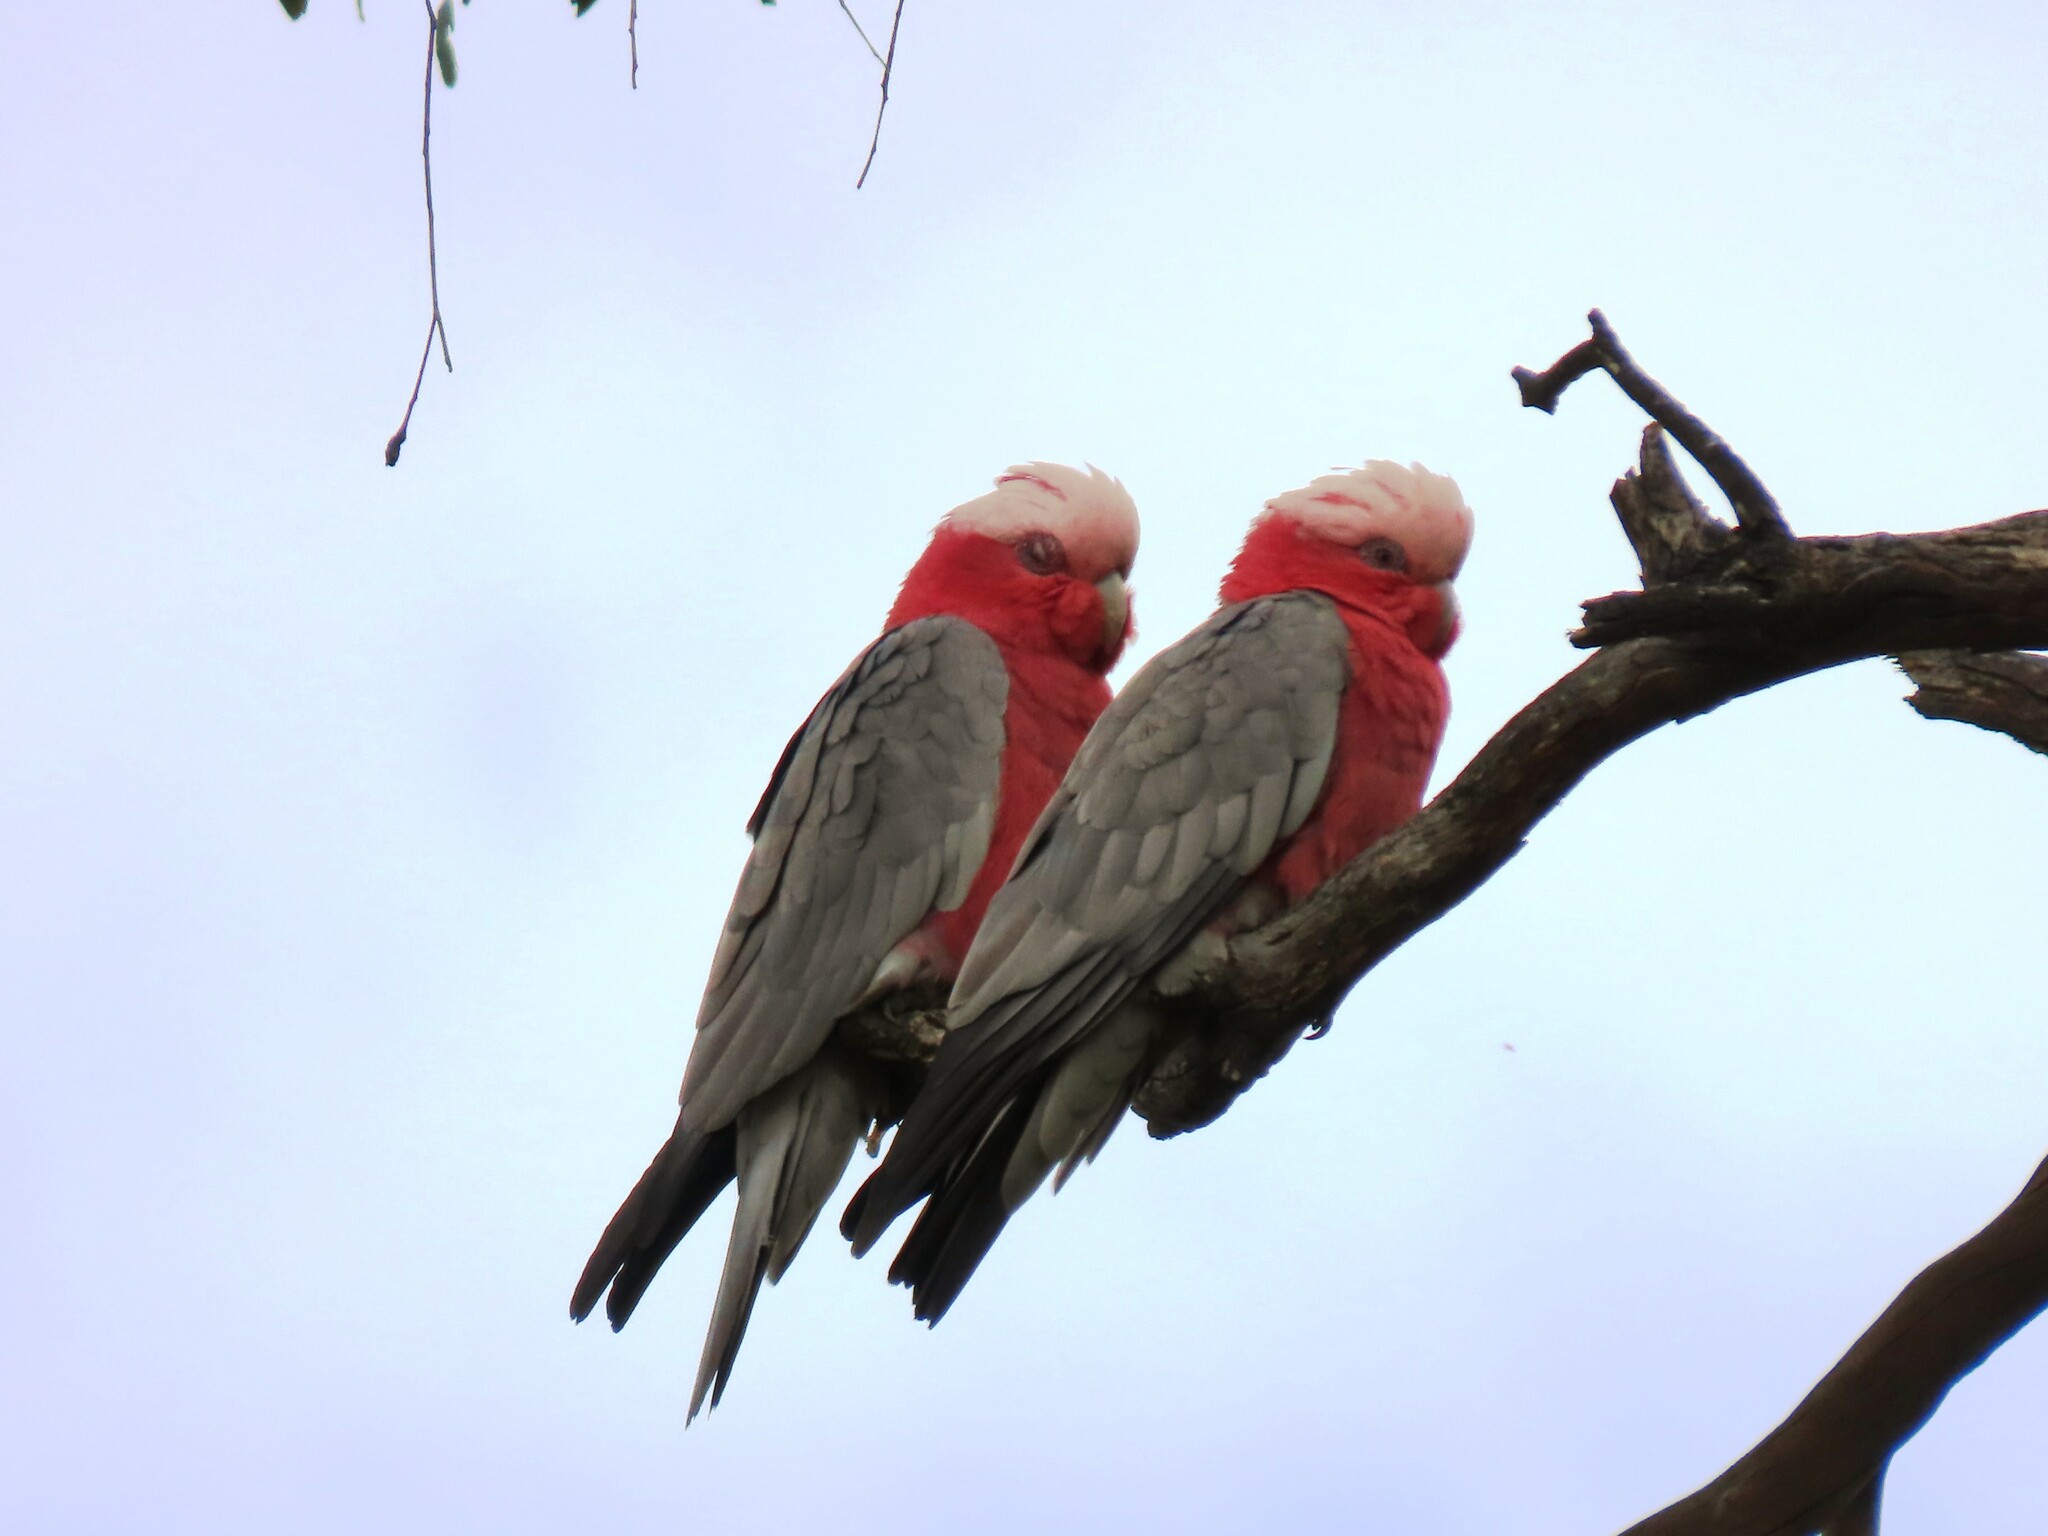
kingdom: Animalia
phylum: Chordata
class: Aves
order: Psittaciformes
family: Psittacidae
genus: Eolophus
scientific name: Eolophus roseicapilla
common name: Galah
